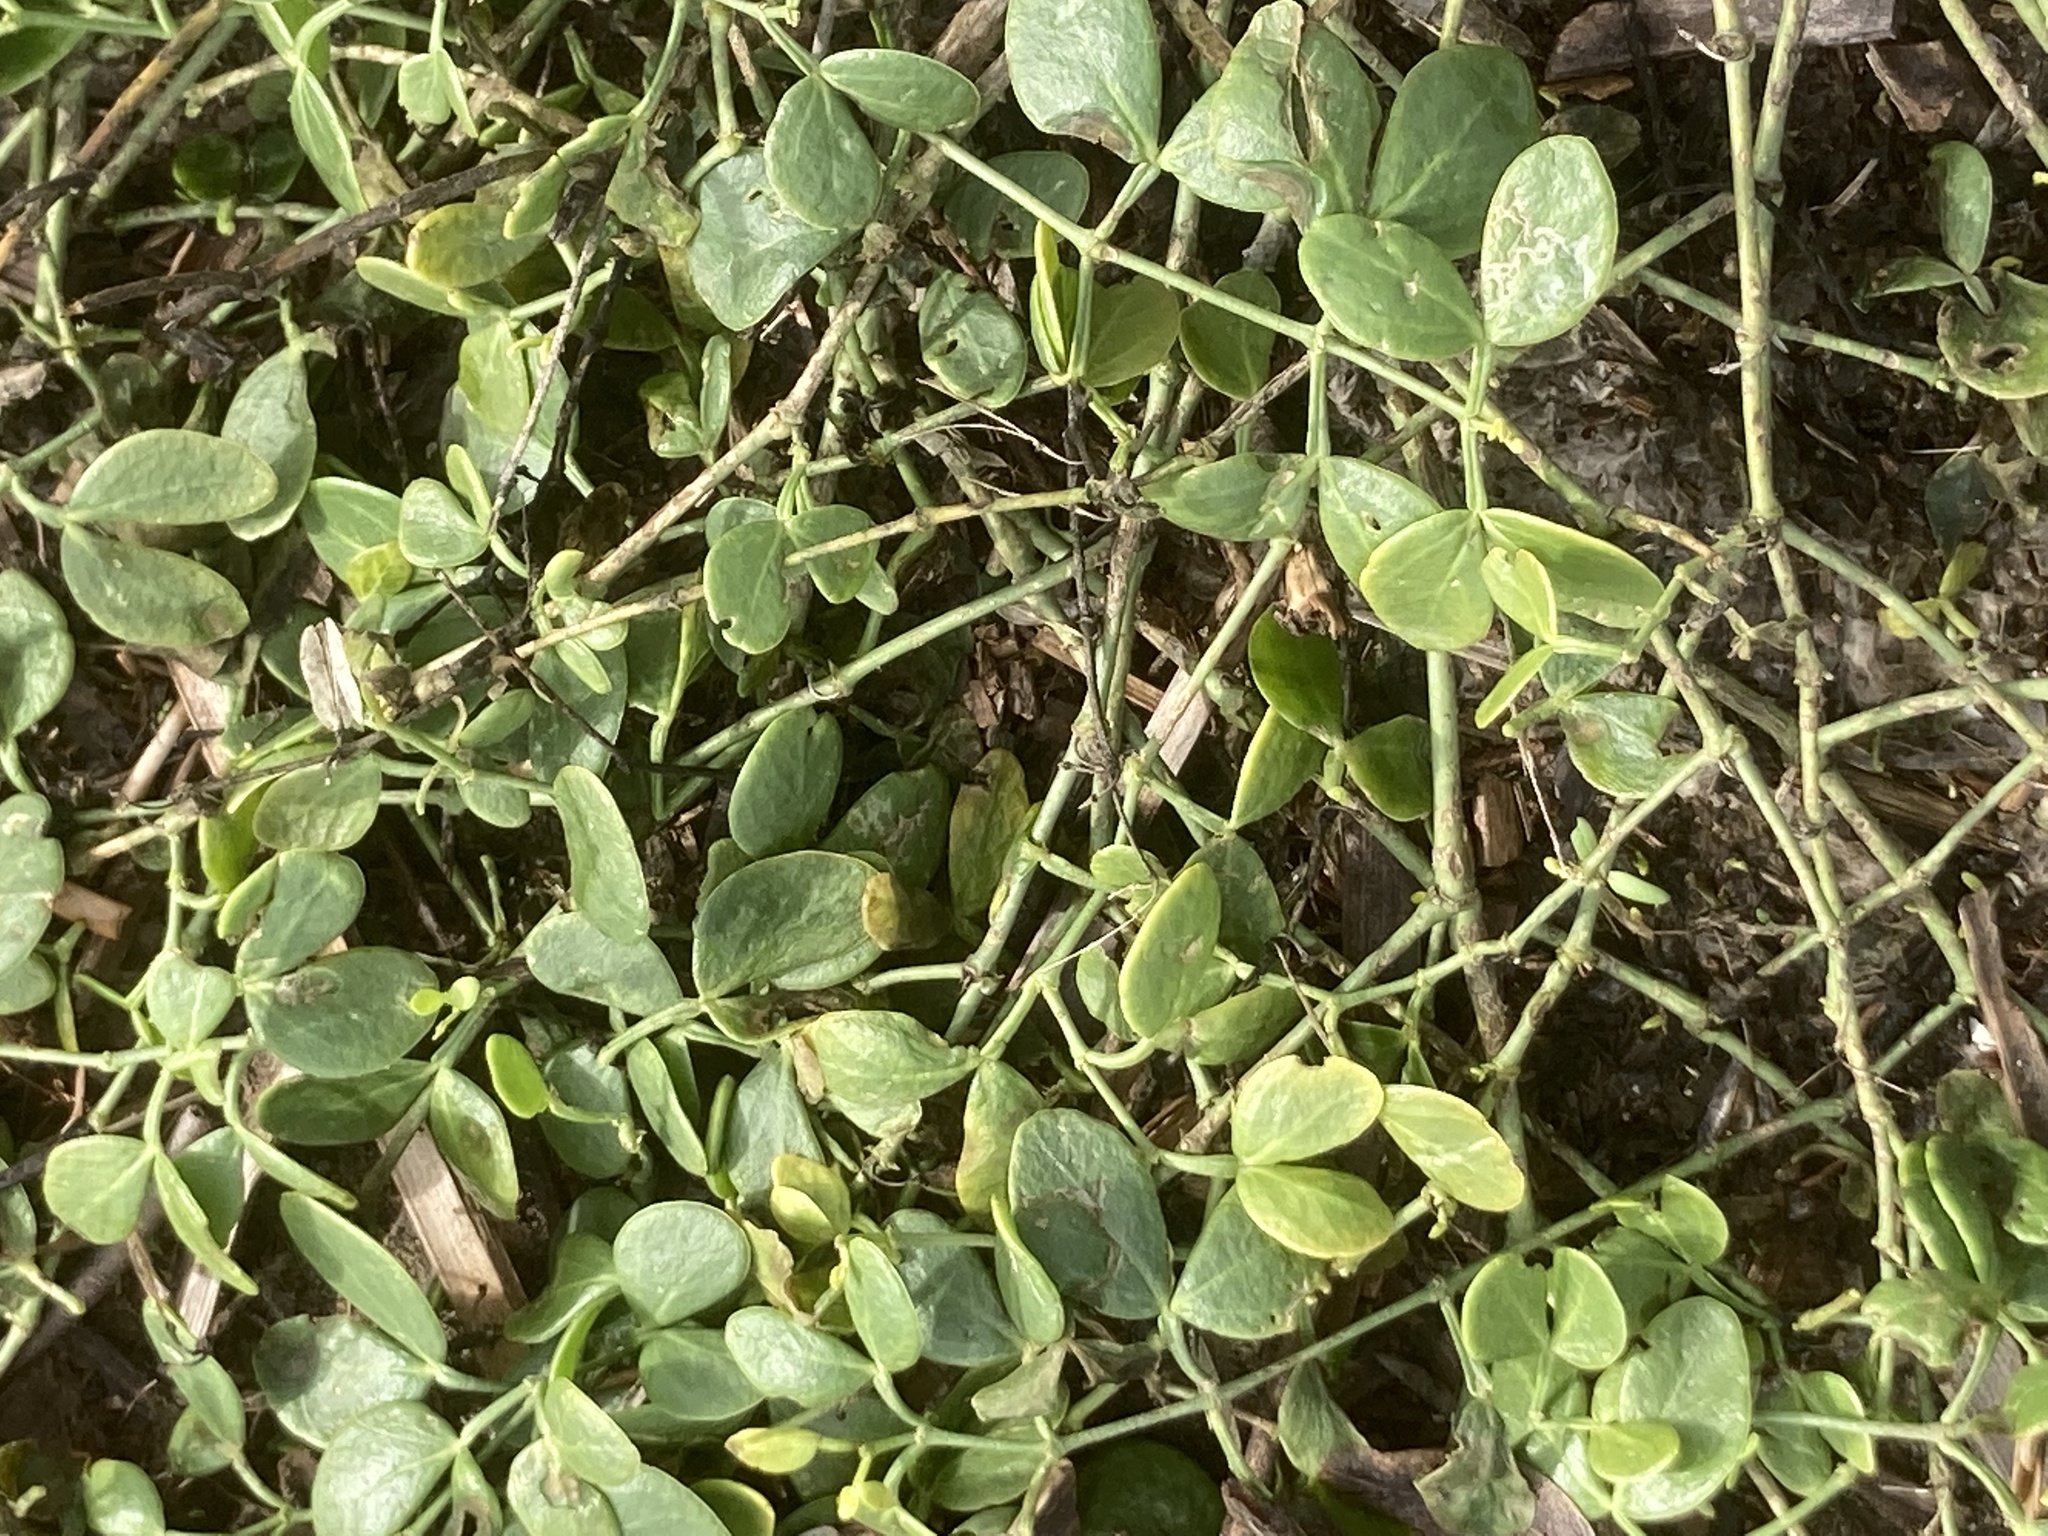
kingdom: Plantae
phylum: Tracheophyta
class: Magnoliopsida
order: Zygophyllales
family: Zygophyllaceae
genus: Zygophyllum
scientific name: Zygophyllum fabago
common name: Syrian beancaper
